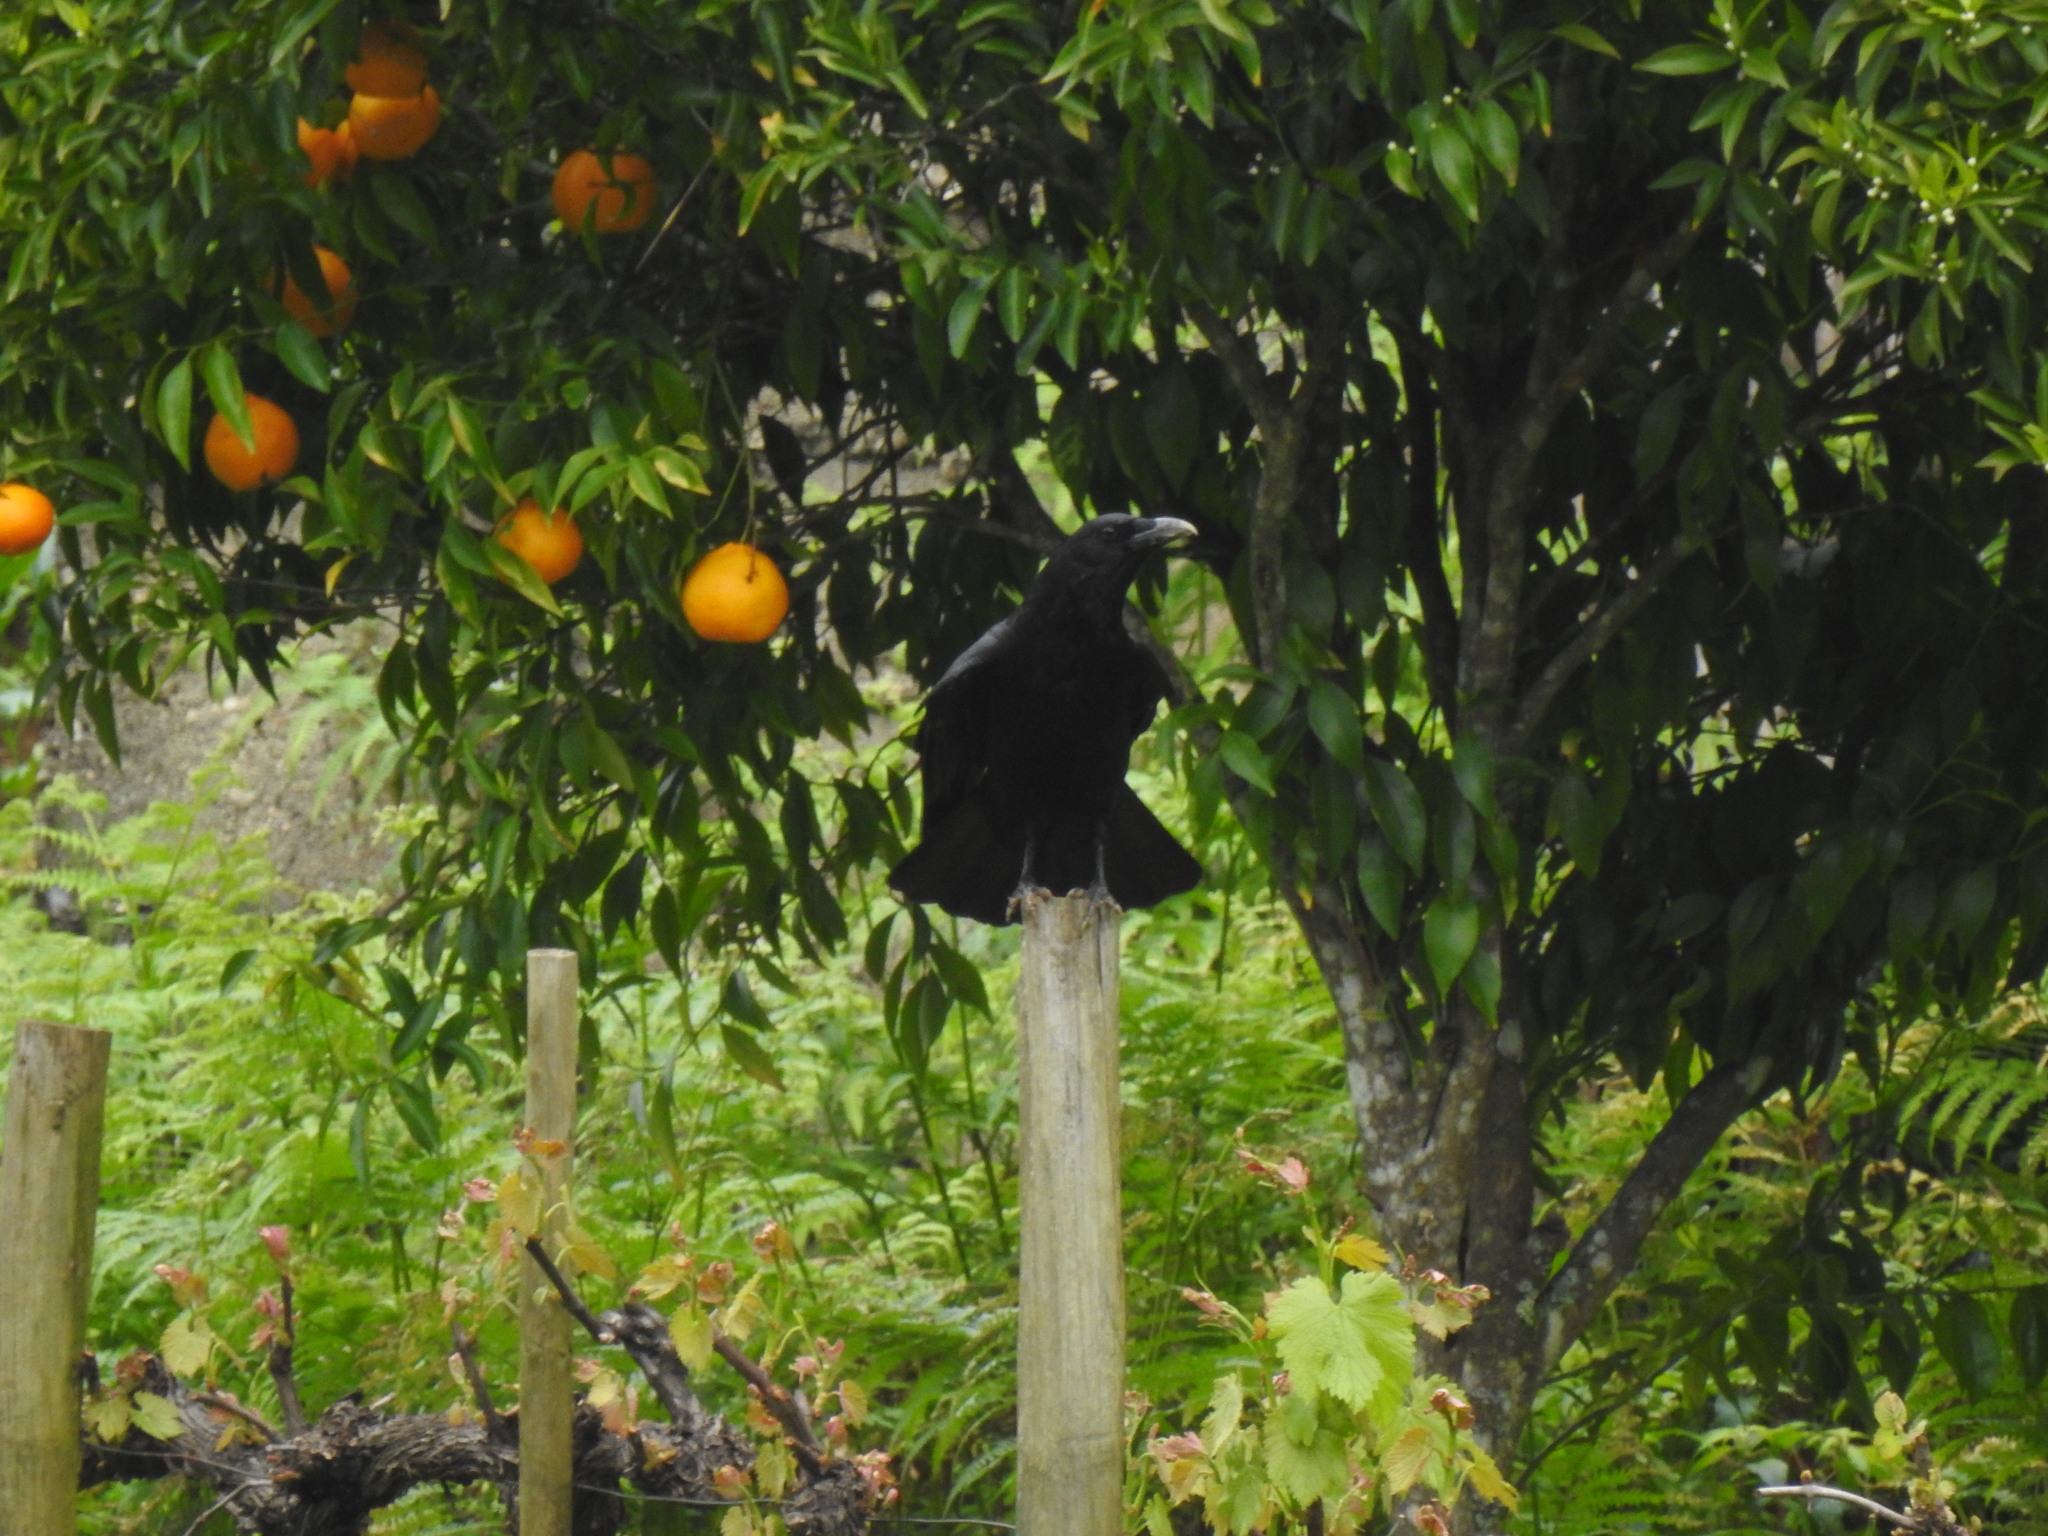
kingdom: Animalia
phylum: Chordata
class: Aves
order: Passeriformes
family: Corvidae
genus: Corvus
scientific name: Corvus corone
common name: Carrion crow
